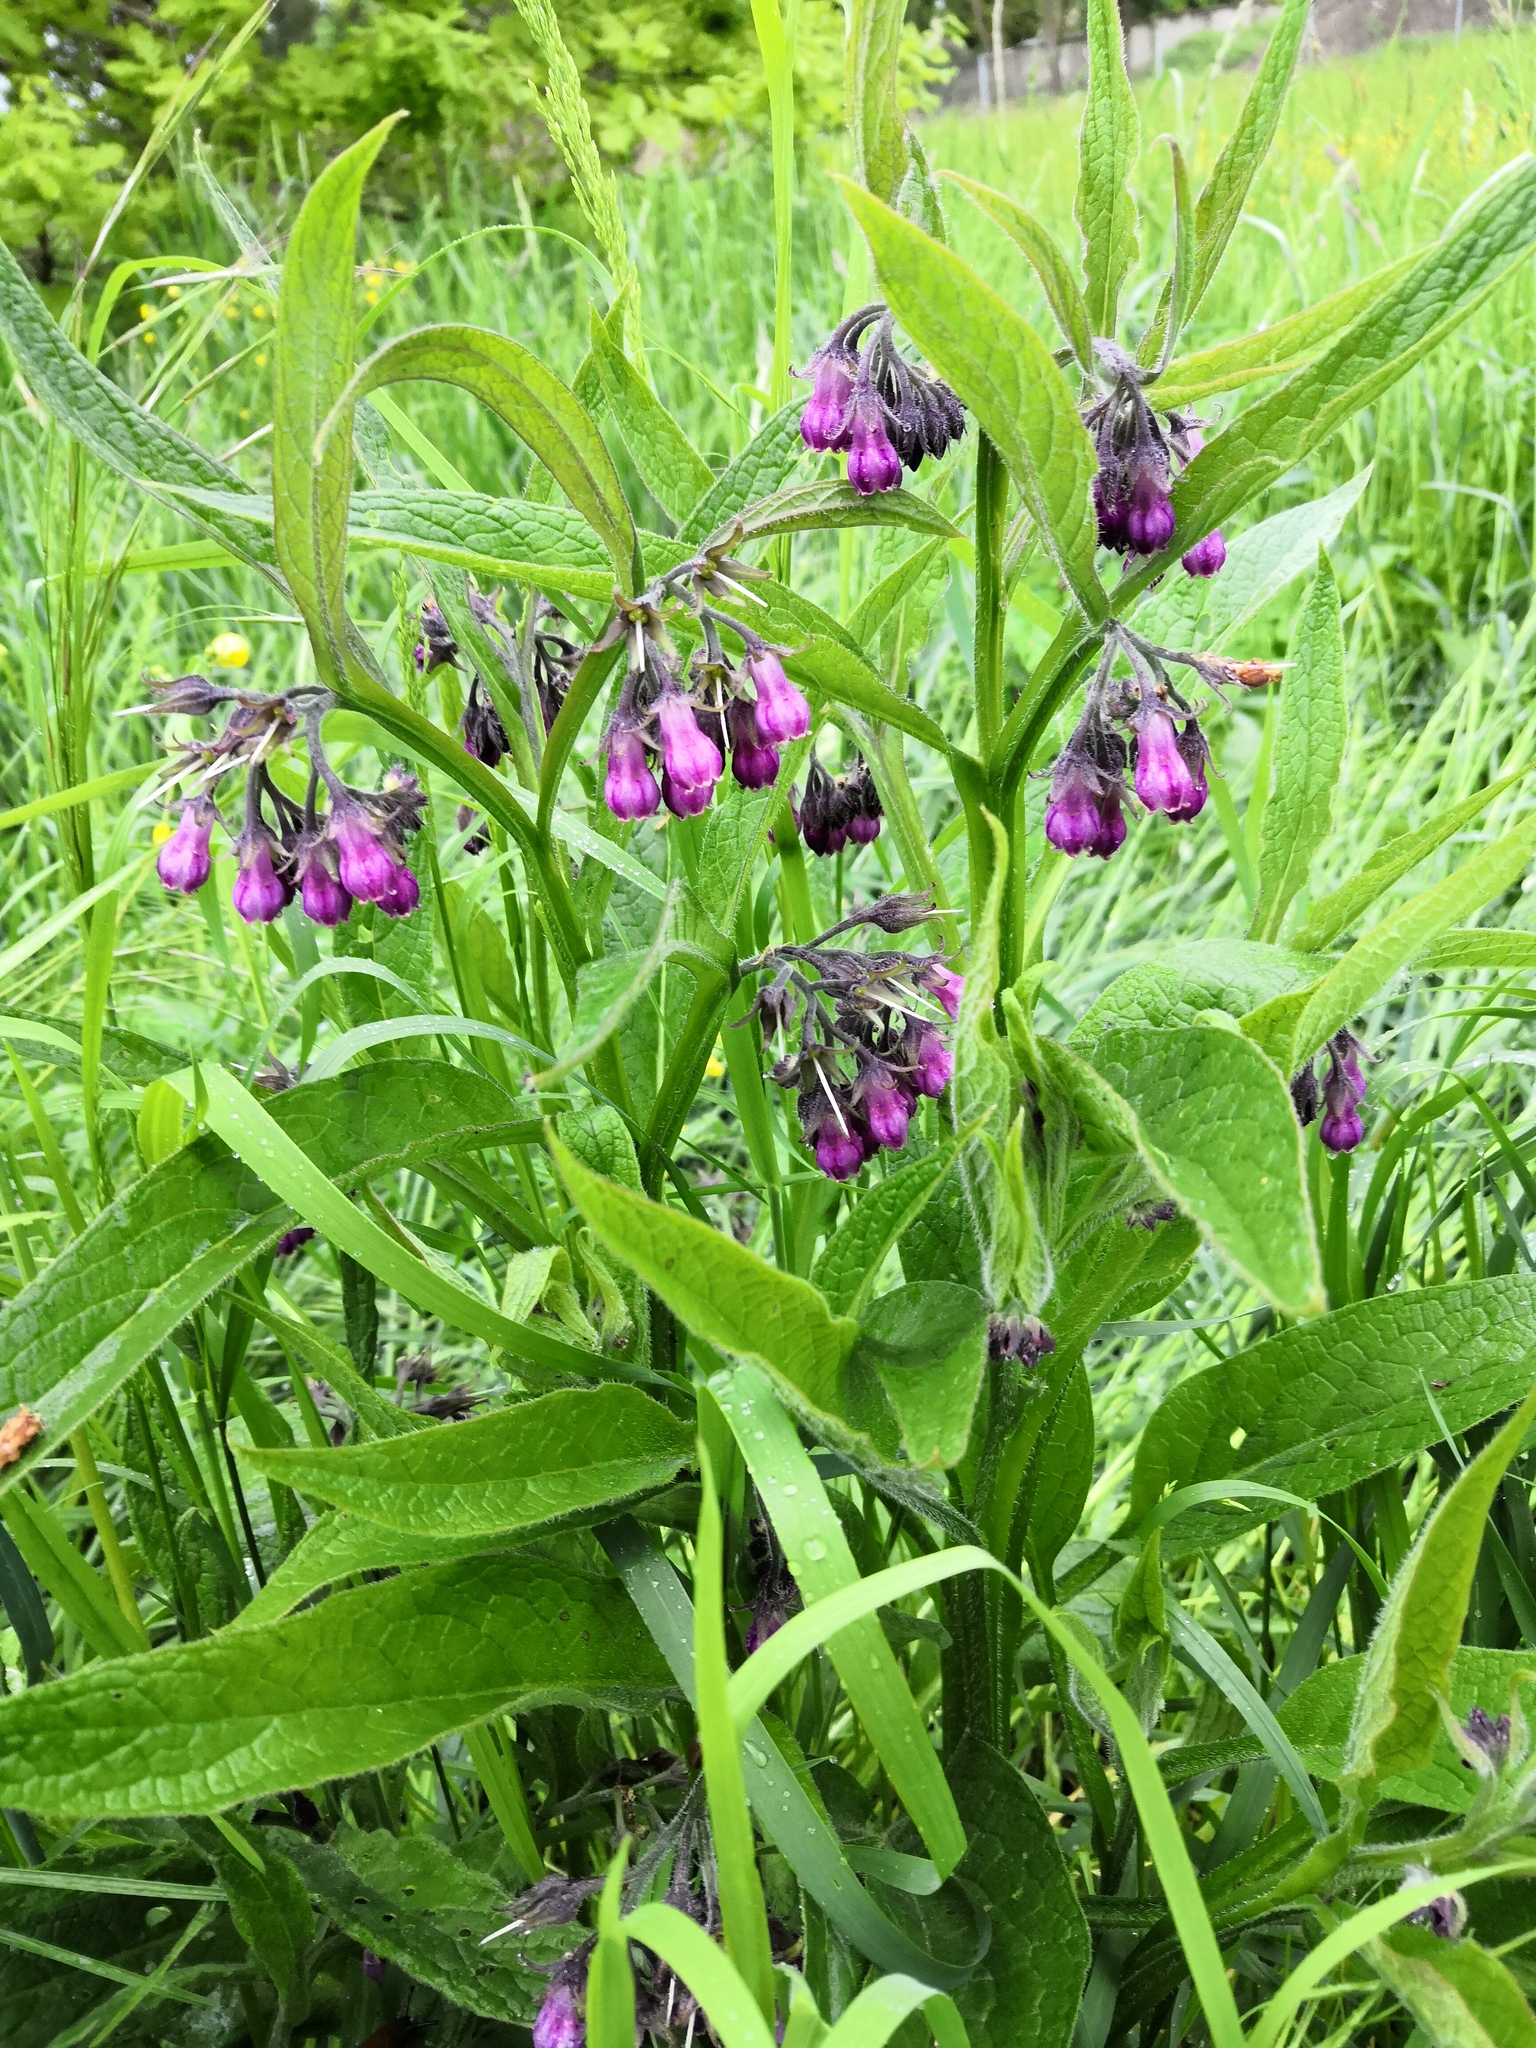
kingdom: Plantae
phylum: Tracheophyta
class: Magnoliopsida
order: Boraginales
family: Boraginaceae
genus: Symphytum
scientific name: Symphytum officinale
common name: Common comfrey
